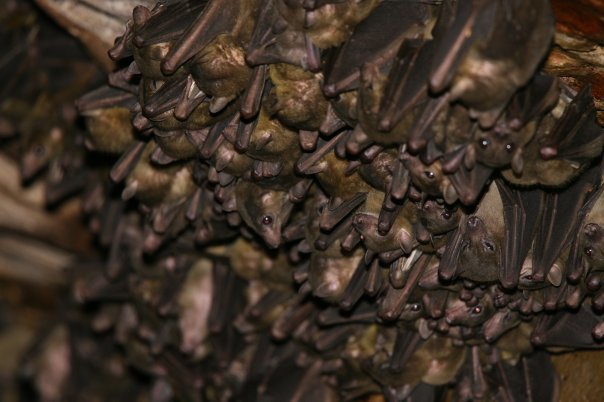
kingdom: Animalia
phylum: Chordata
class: Mammalia
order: Chiroptera
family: Pteropodidae
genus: Rousettus
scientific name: Rousettus madagascariensis
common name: Madagascan rousette
